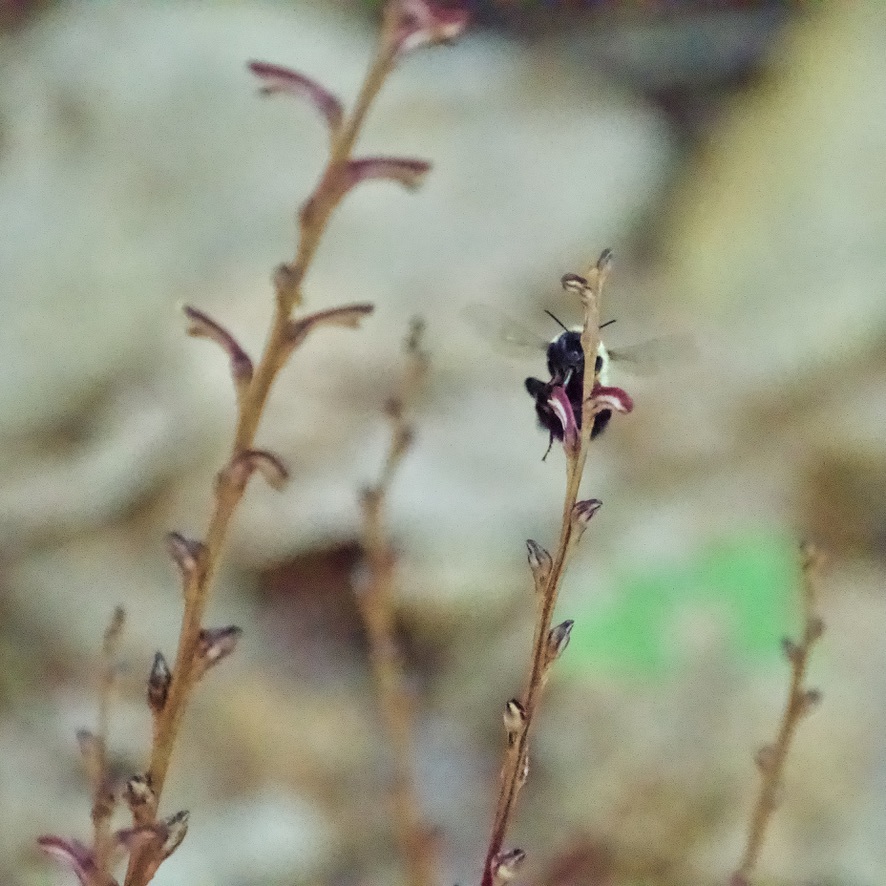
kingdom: Plantae
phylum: Tracheophyta
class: Magnoliopsida
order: Lamiales
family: Orobanchaceae
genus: Epifagus
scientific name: Epifagus virginiana
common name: Beechdrops
